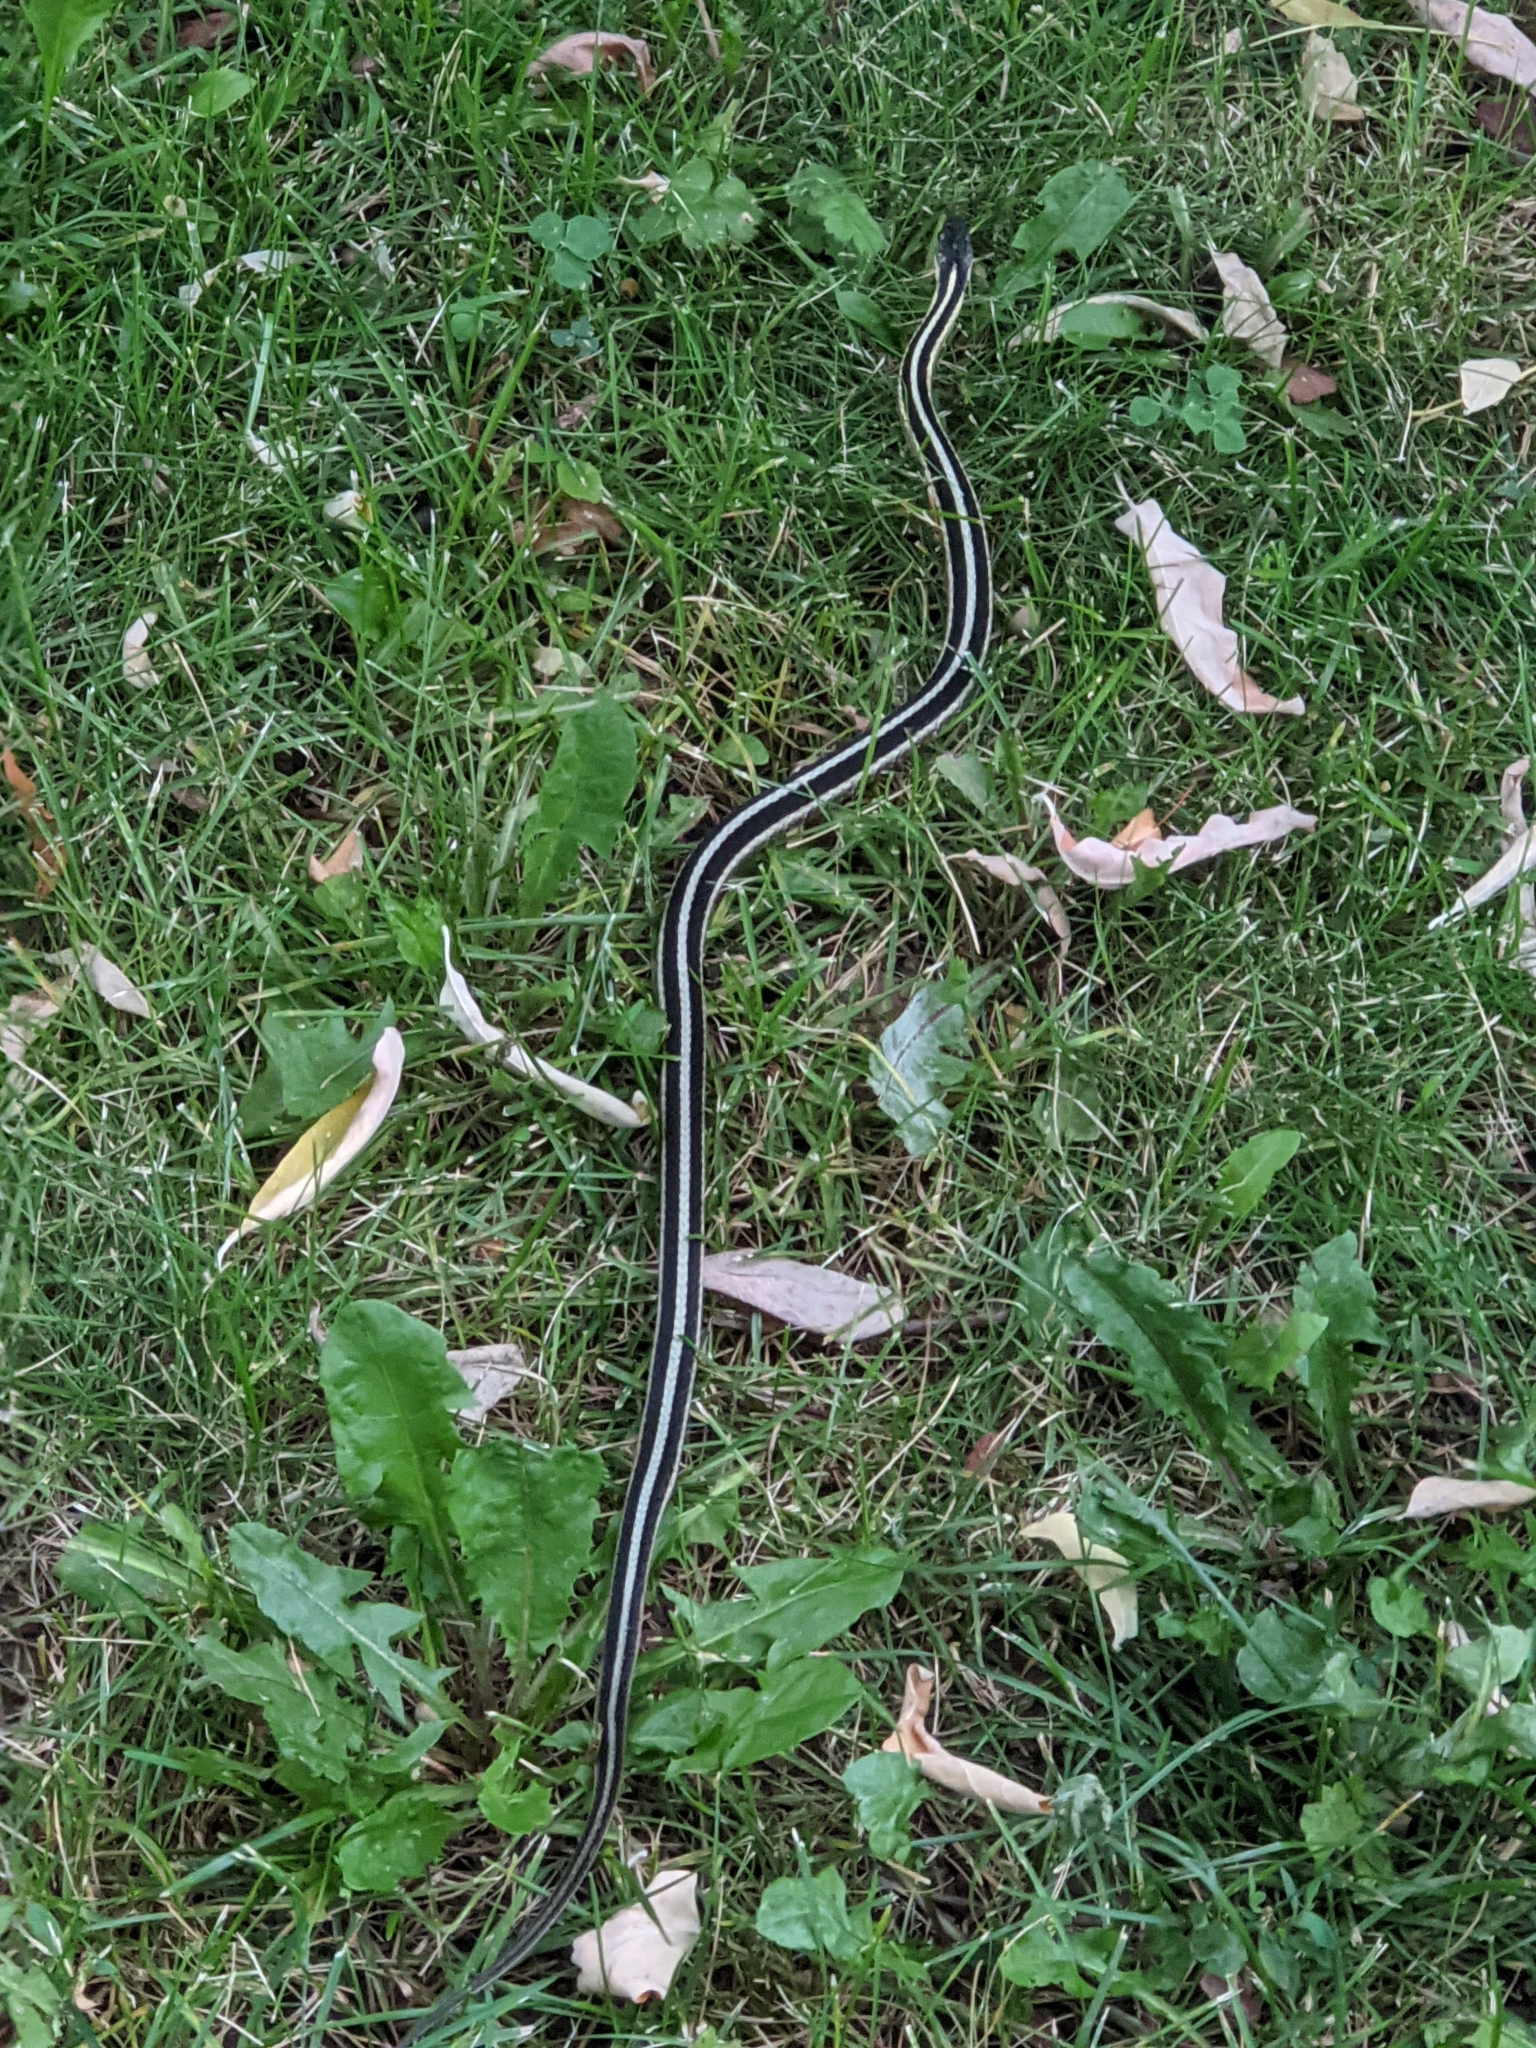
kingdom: Animalia
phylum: Chordata
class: Squamata
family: Colubridae
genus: Thamnophis
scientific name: Thamnophis sirtalis
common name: Common garter snake
